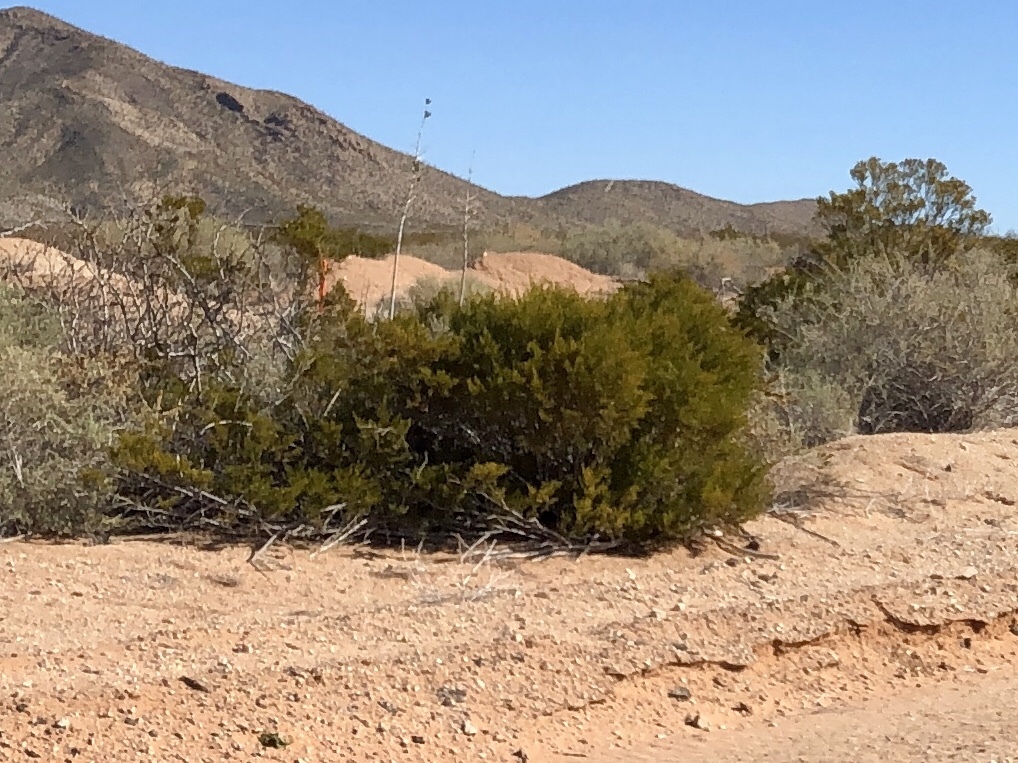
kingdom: Plantae
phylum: Tracheophyta
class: Magnoliopsida
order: Zygophyllales
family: Zygophyllaceae
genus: Larrea
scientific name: Larrea tridentata
